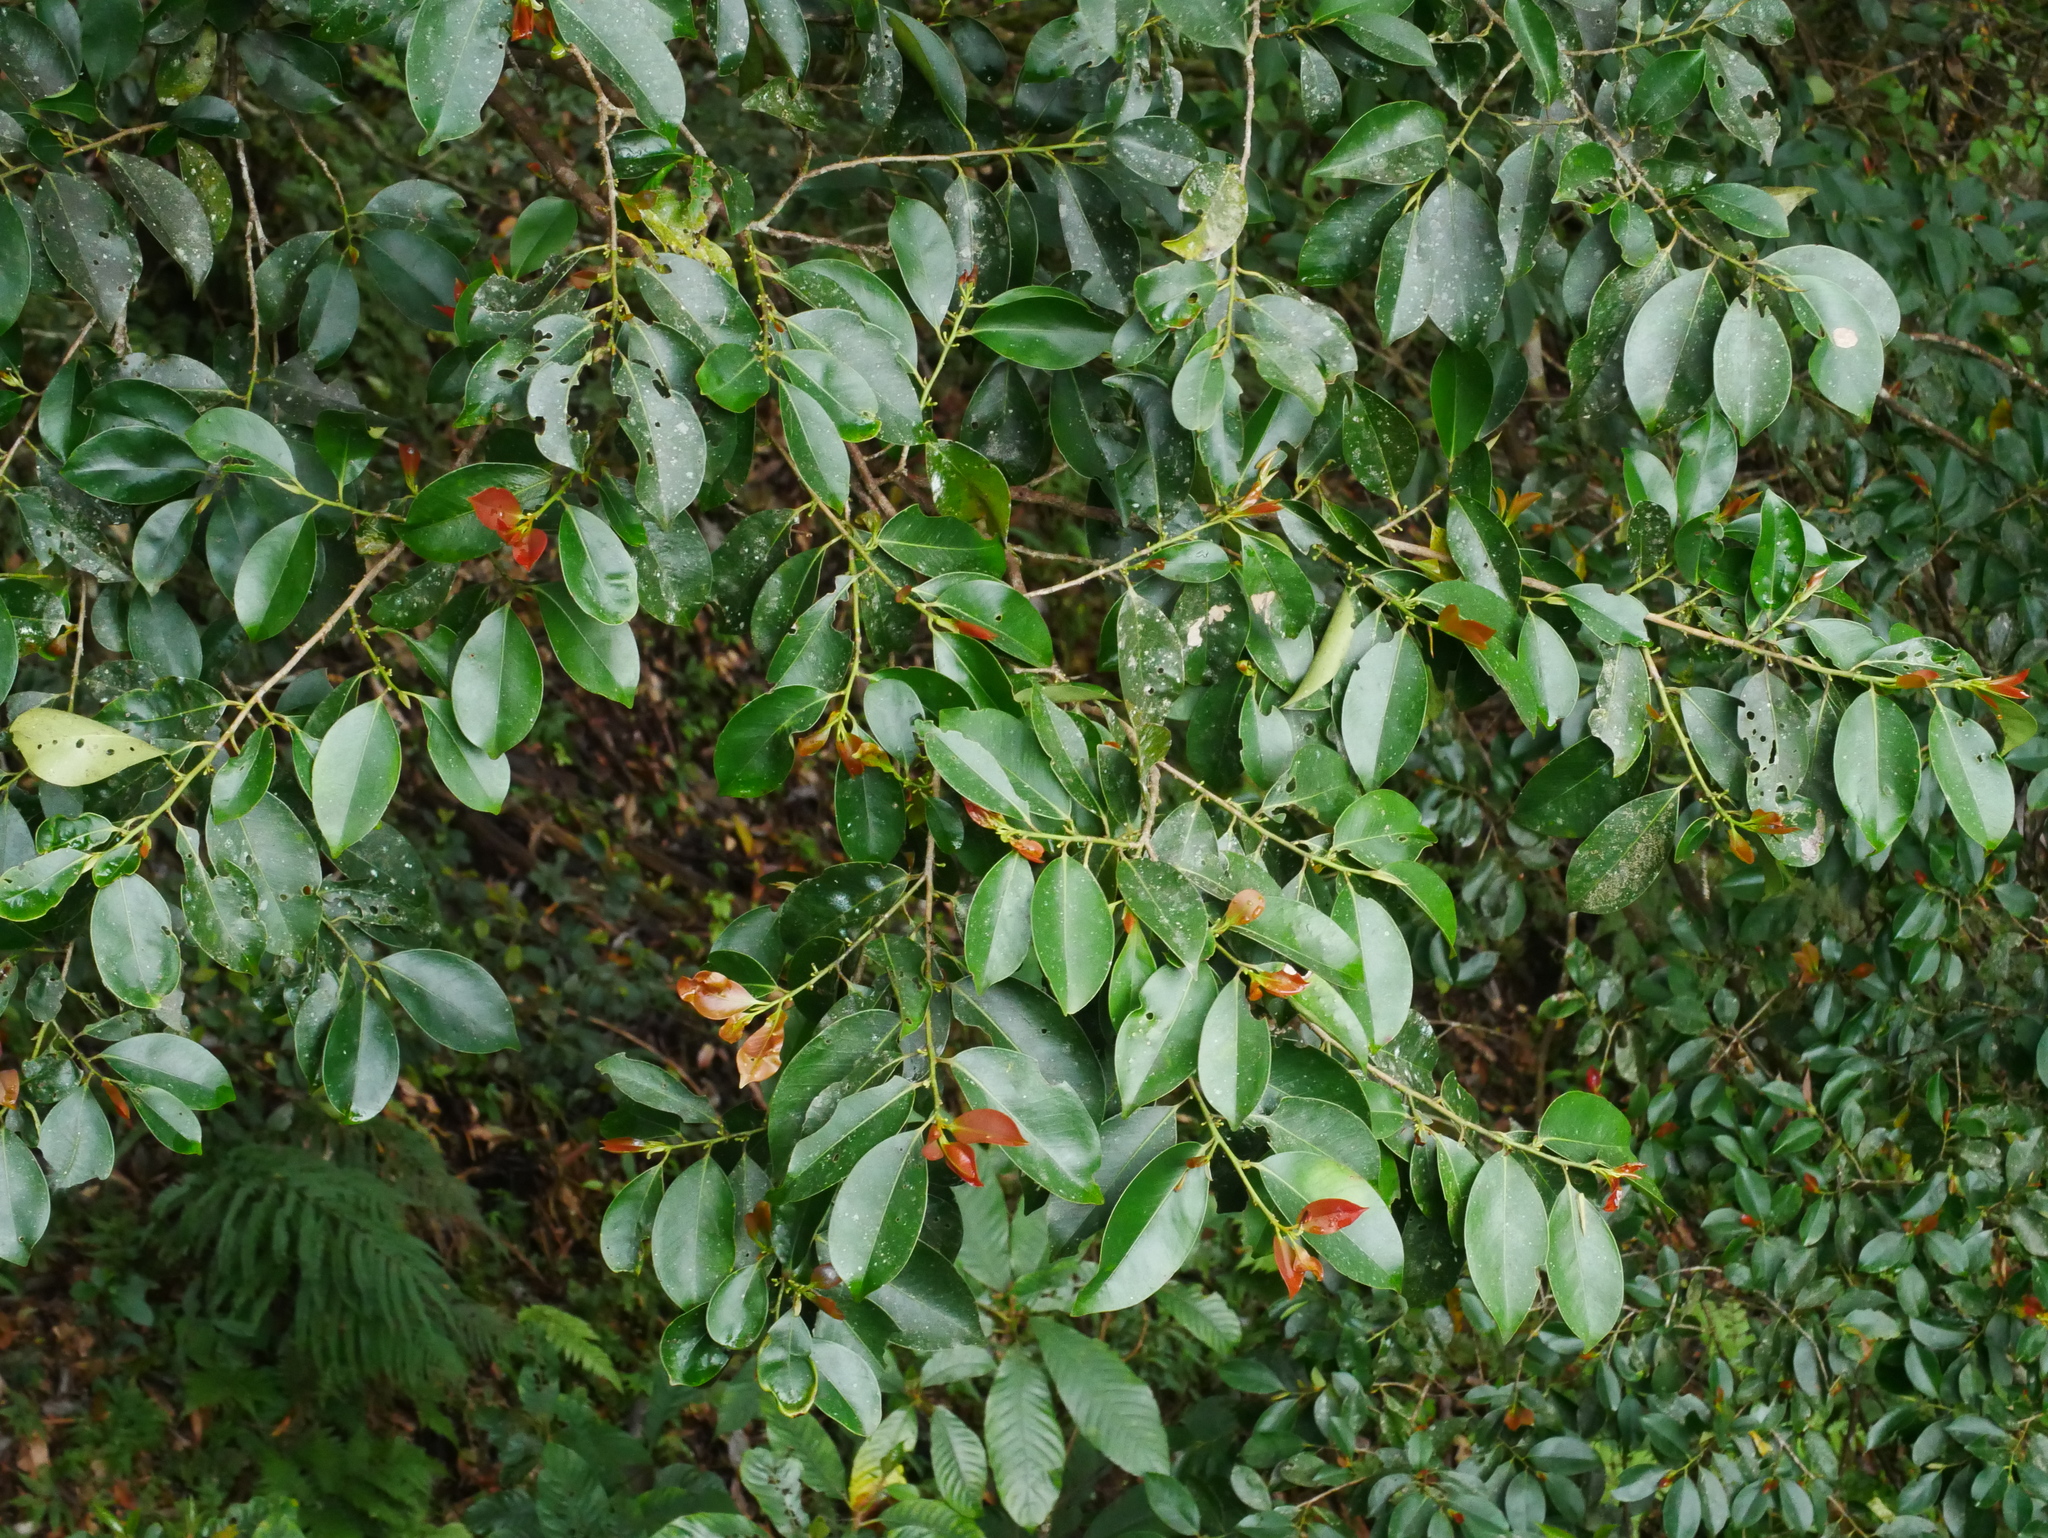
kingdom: Plantae
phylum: Tracheophyta
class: Magnoliopsida
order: Ericales
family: Pentaphylacaceae
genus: Cleyera
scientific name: Cleyera japonica
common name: Sakaki
